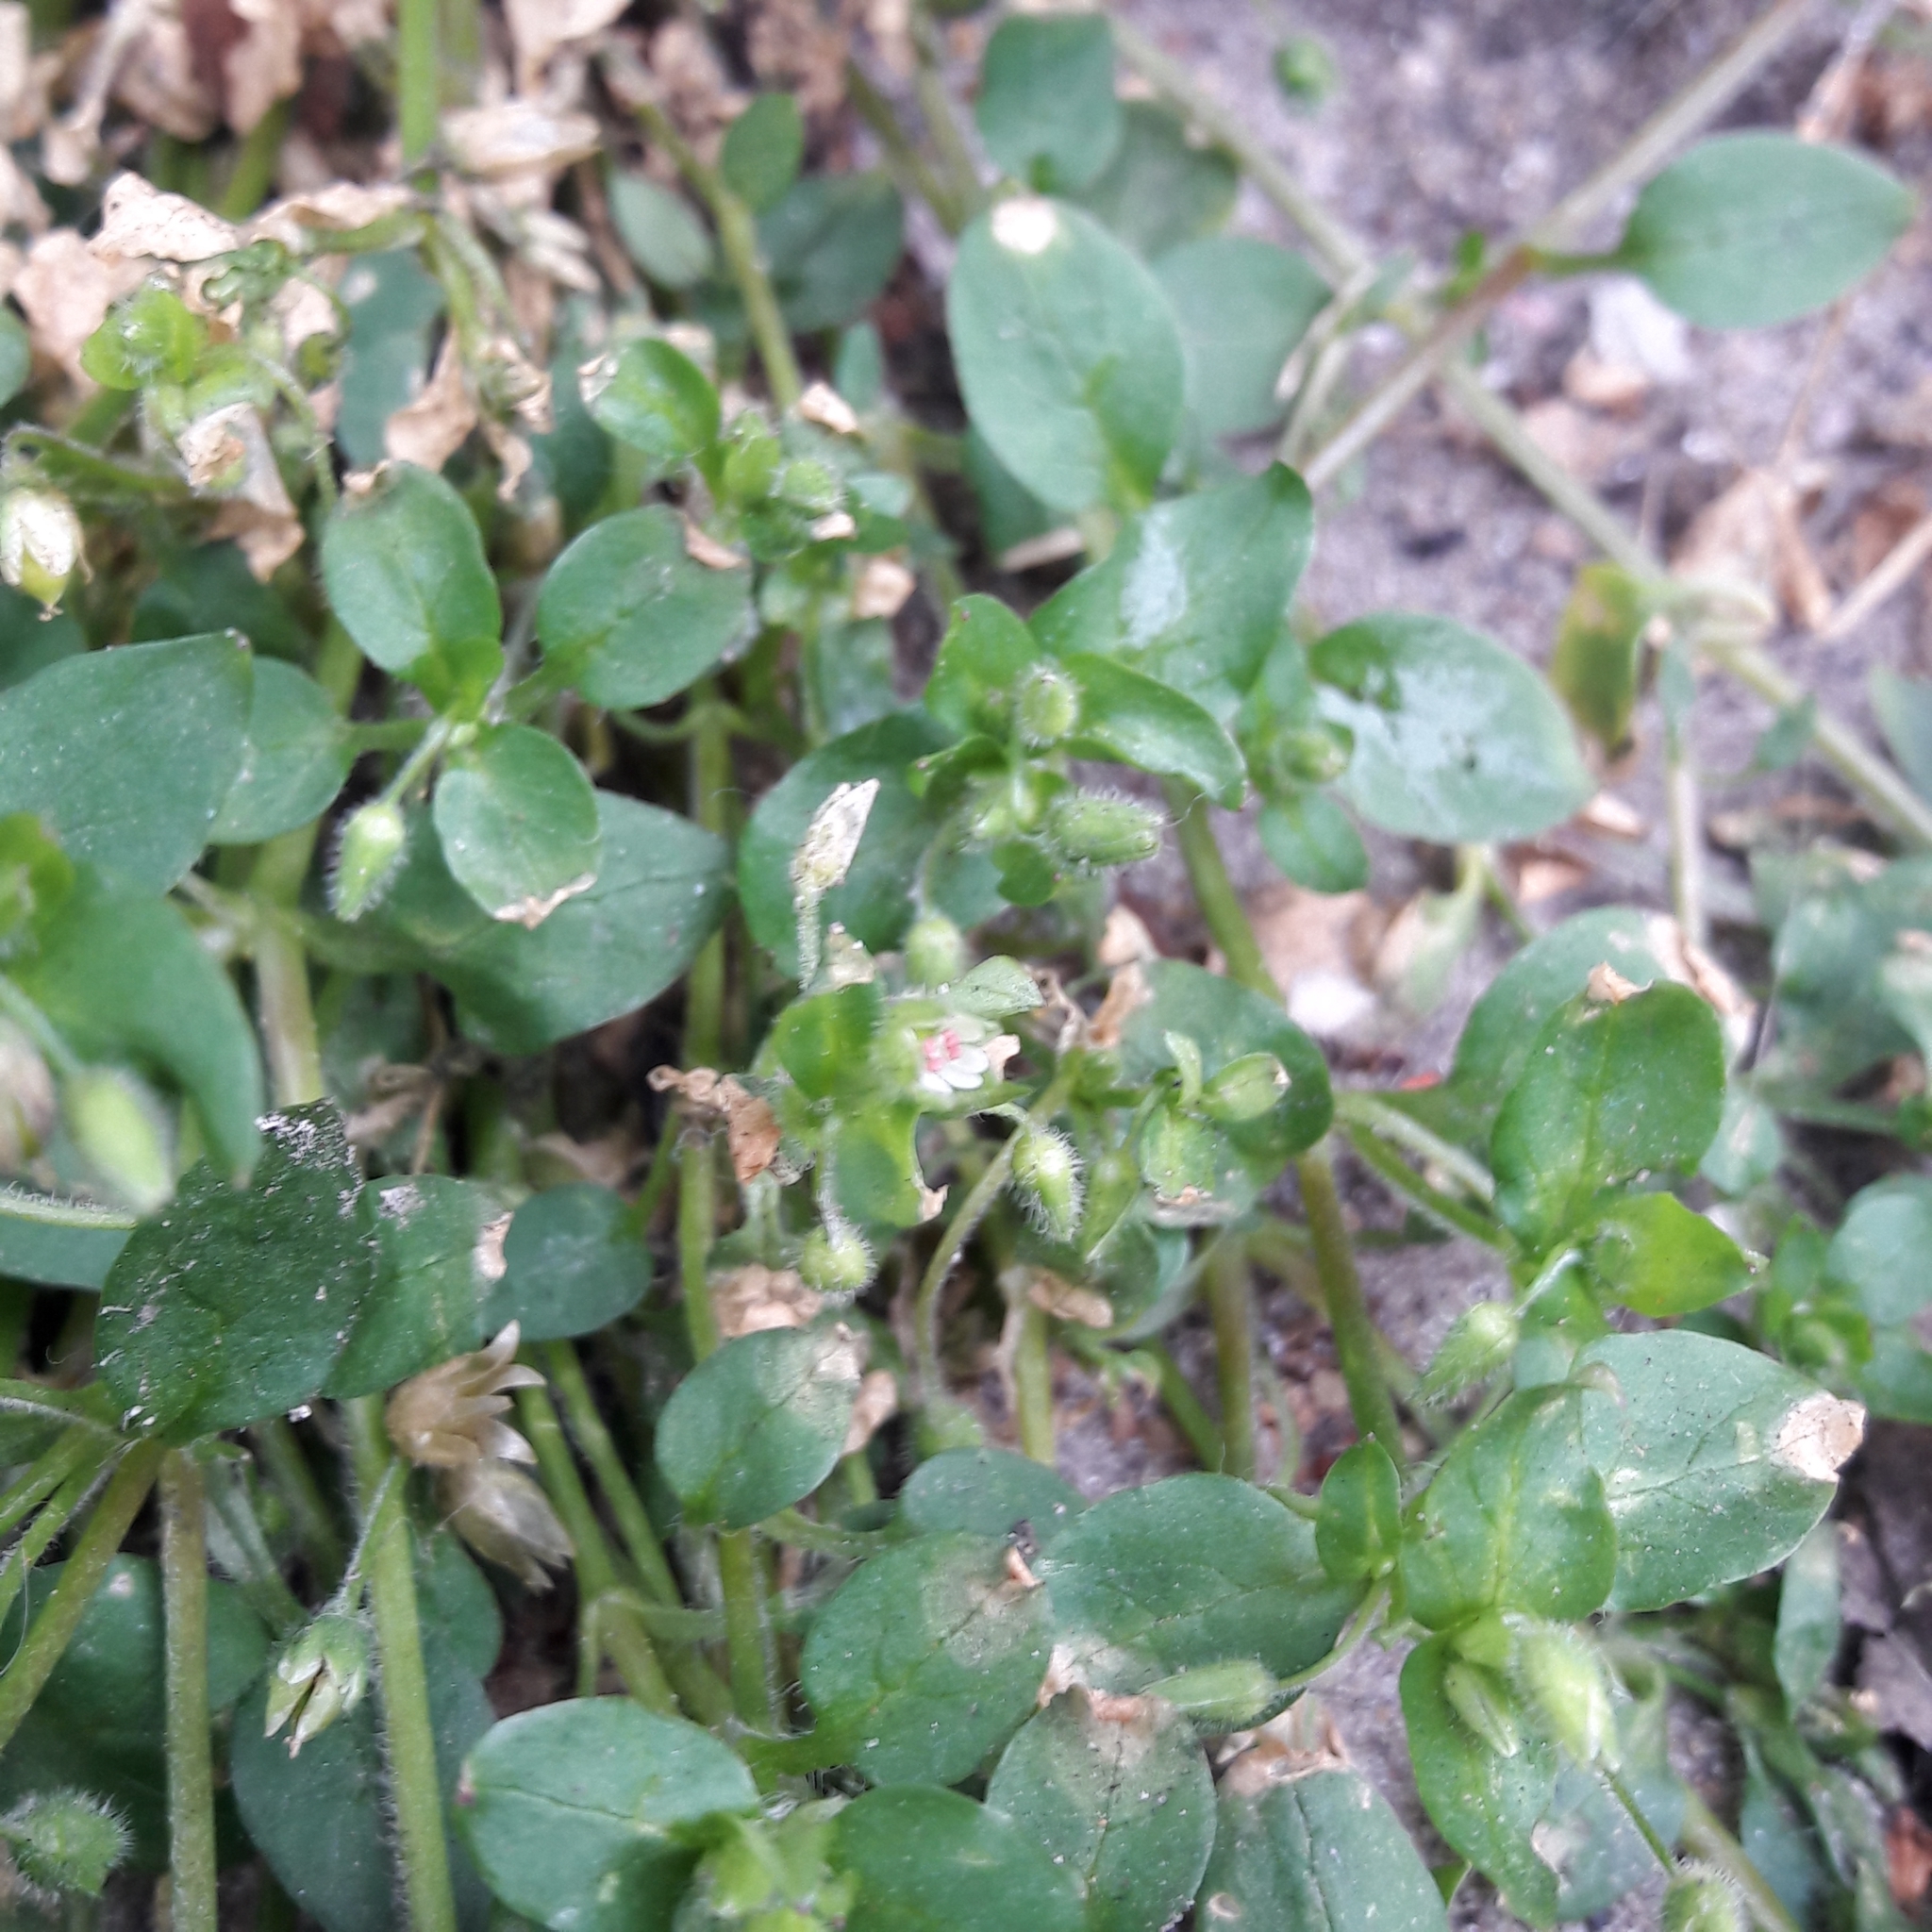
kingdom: Plantae
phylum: Tracheophyta
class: Magnoliopsida
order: Caryophyllales
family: Caryophyllaceae
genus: Stellaria
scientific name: Stellaria media
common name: Common chickweed
